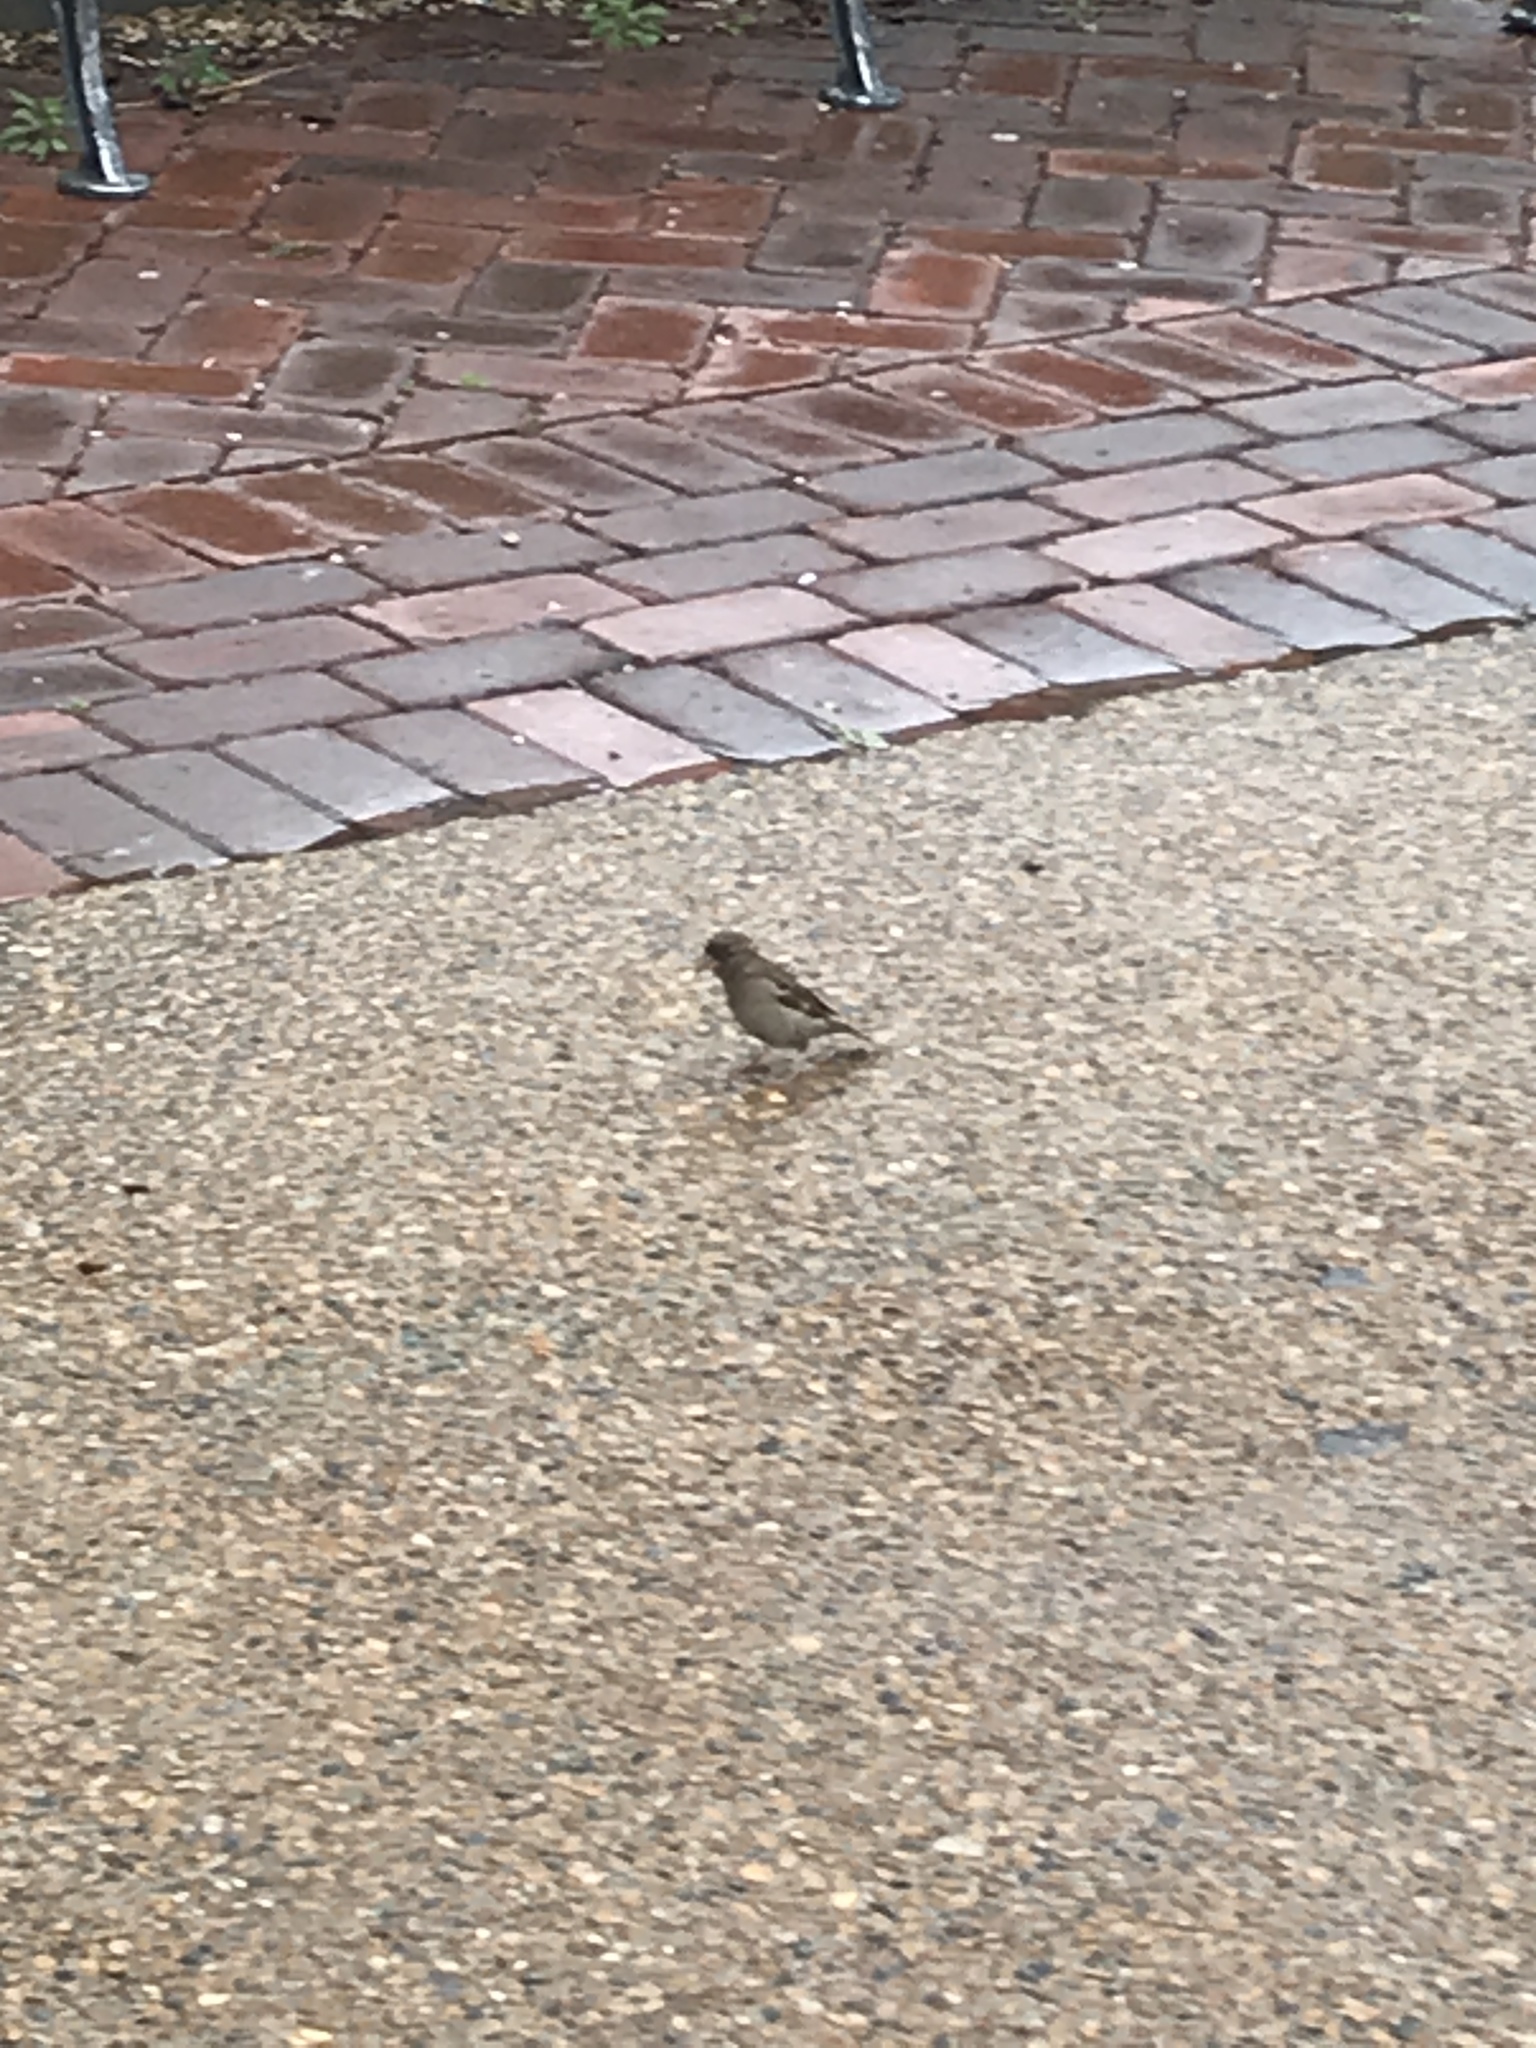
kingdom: Animalia
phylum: Chordata
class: Aves
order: Passeriformes
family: Passeridae
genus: Passer
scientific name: Passer domesticus
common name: House sparrow
